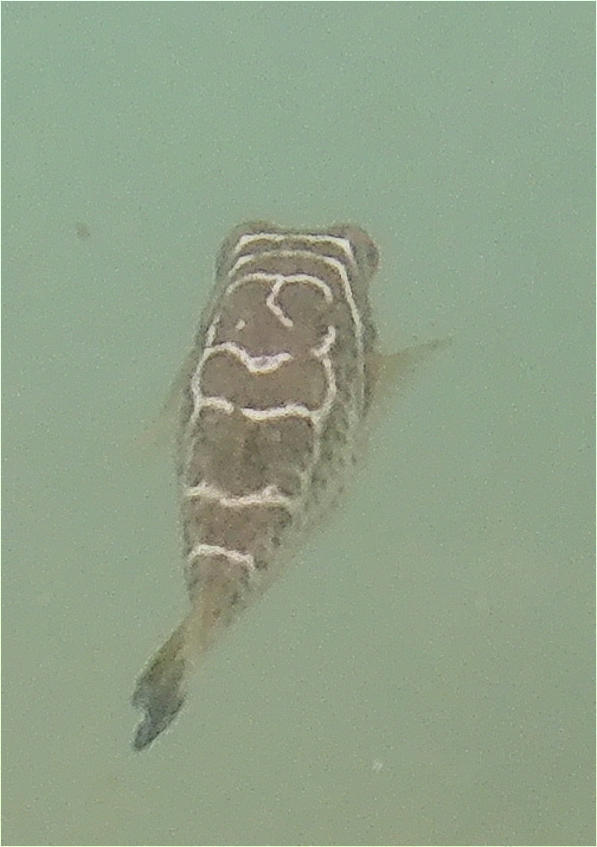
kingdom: Animalia
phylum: Chordata
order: Tetraodontiformes
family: Tetraodontidae
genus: Sphoeroides
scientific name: Sphoeroides annulatus
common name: Bullseye puffer
